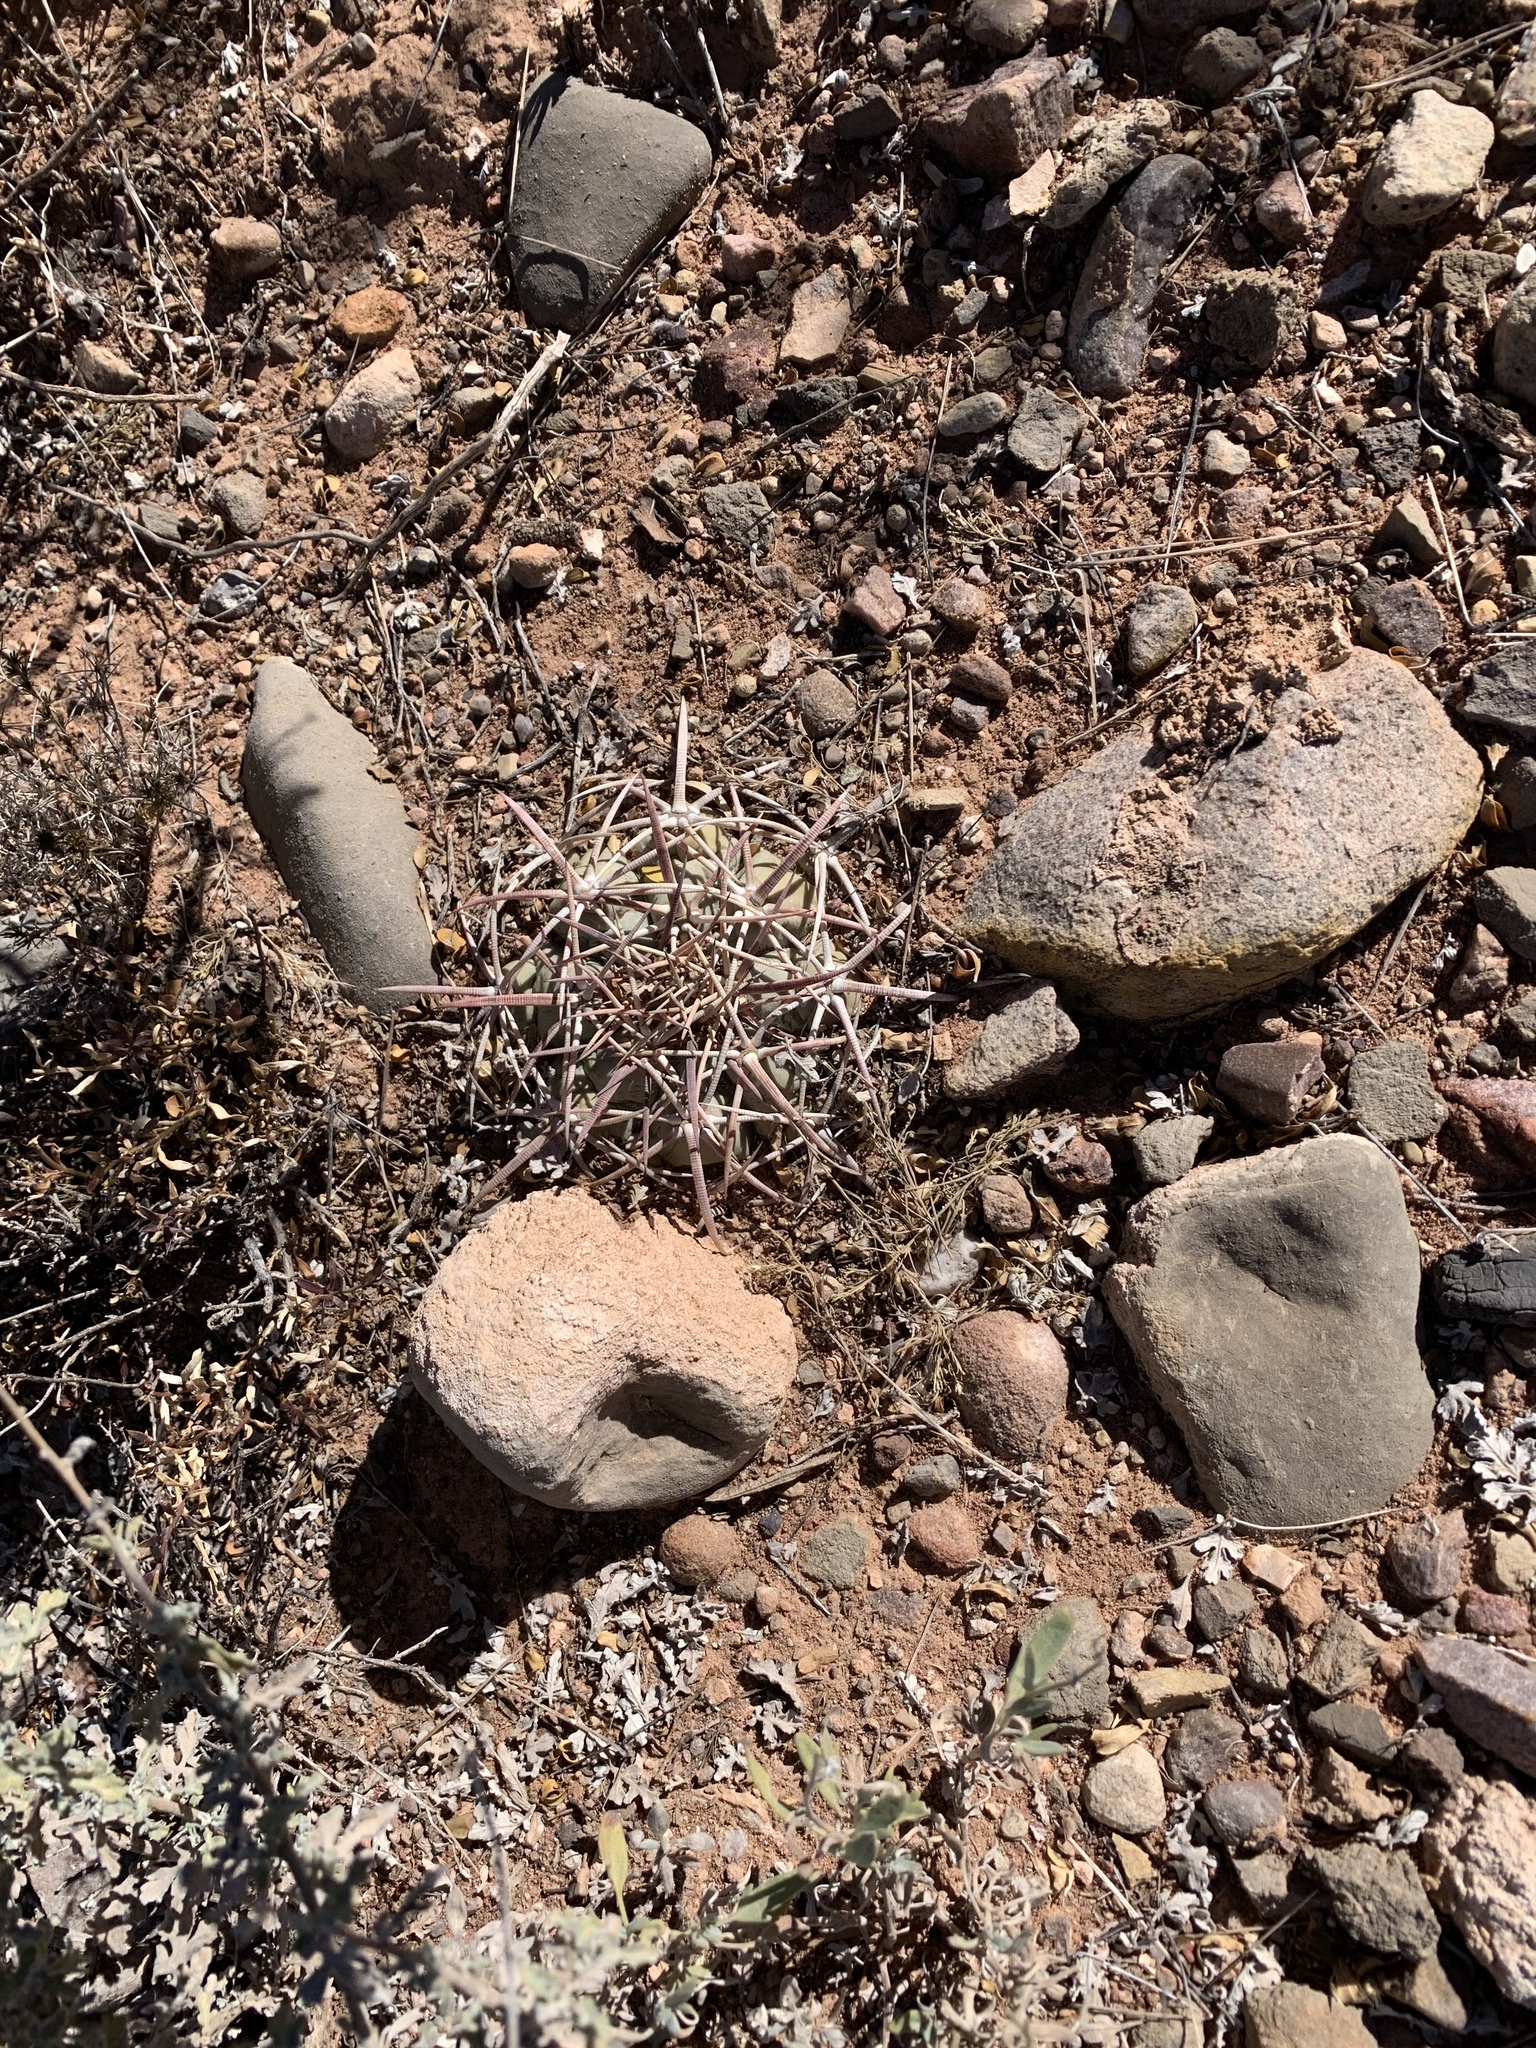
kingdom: Plantae
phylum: Tracheophyta
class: Magnoliopsida
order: Caryophyllales
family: Cactaceae
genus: Echinocactus
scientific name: Echinocactus horizonthalonius
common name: Devilshead
